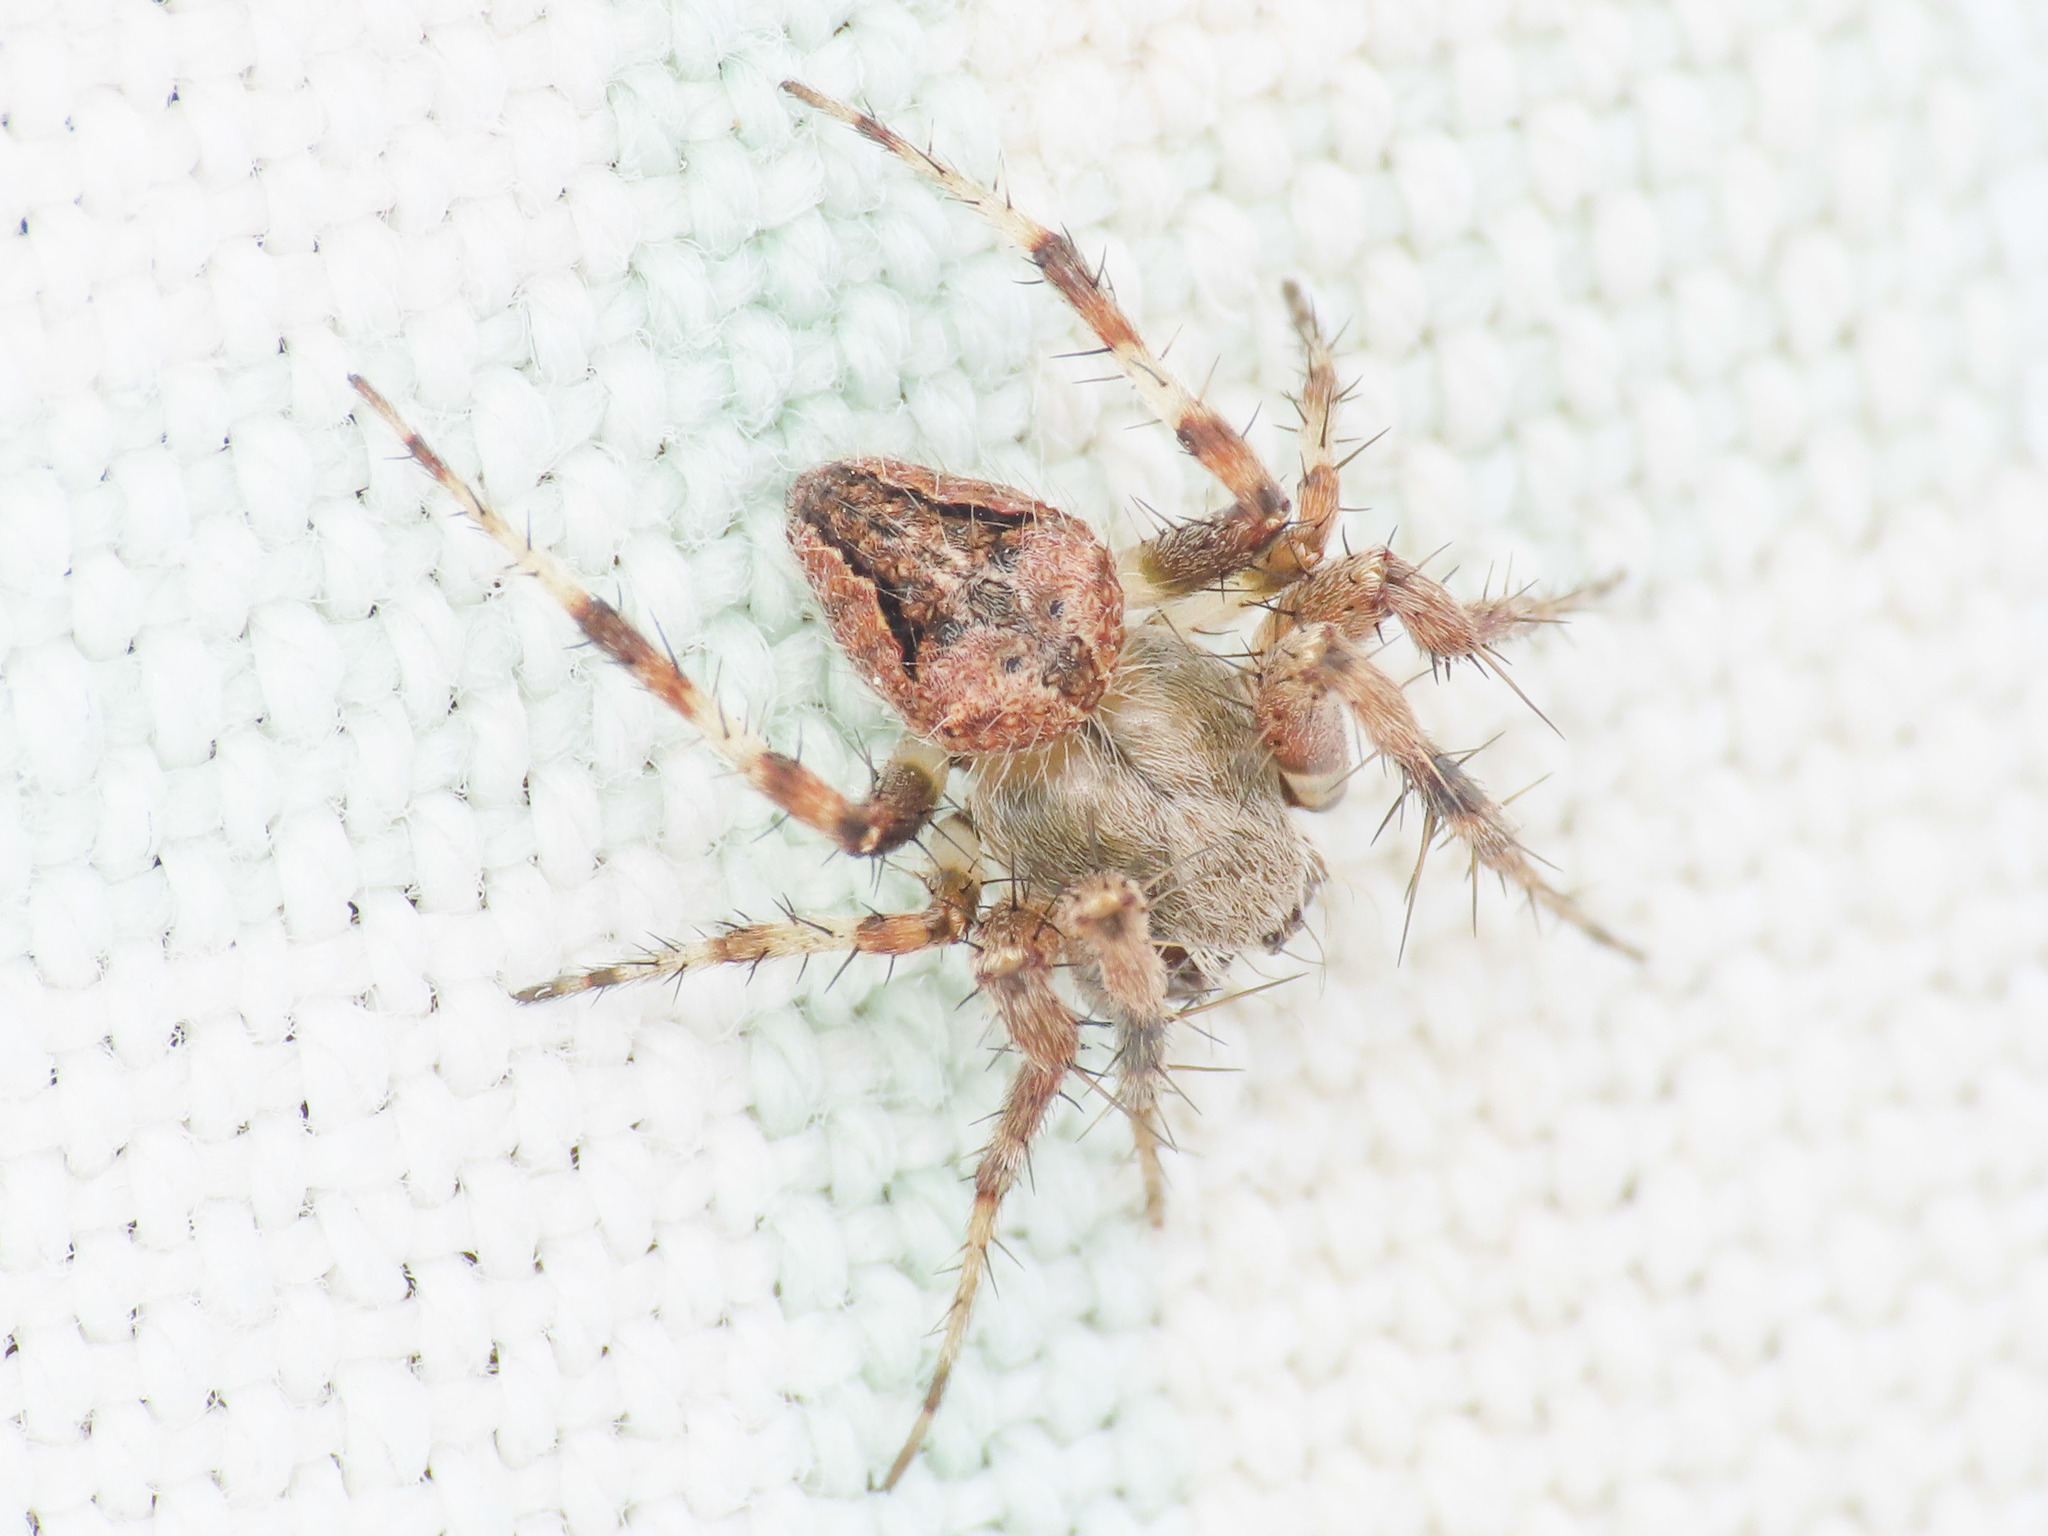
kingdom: Animalia
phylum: Arthropoda
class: Arachnida
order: Araneae
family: Araneidae
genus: Neoscona
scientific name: Neoscona subfusca
